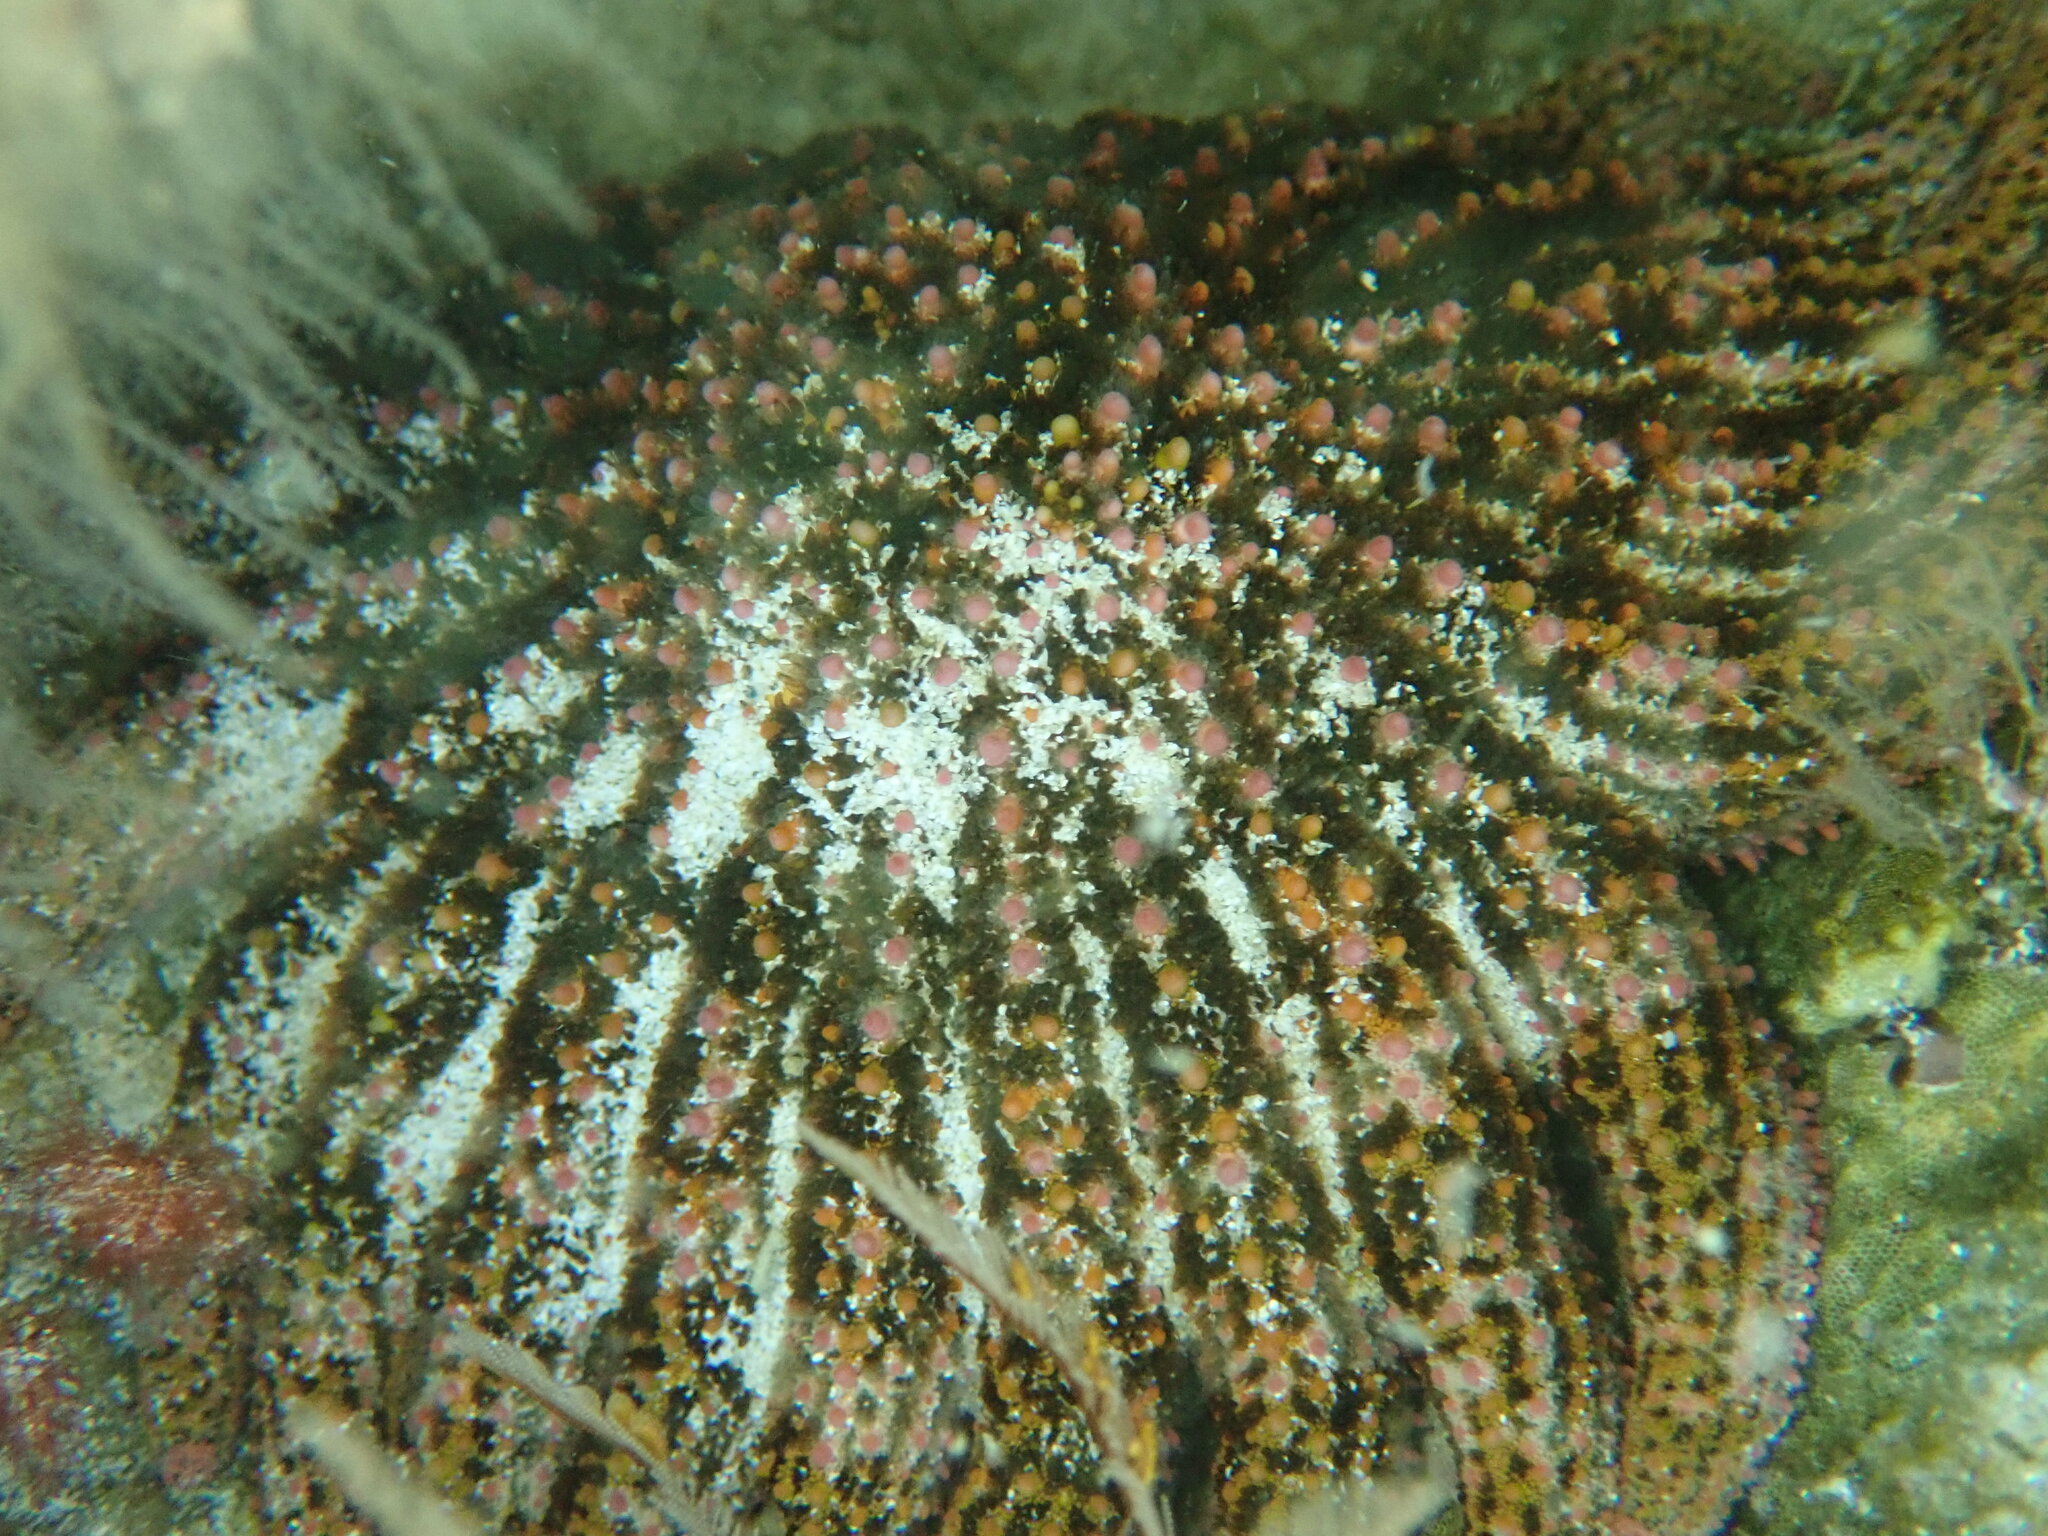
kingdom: Animalia
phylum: Echinodermata
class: Asteroidea
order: Forcipulatida
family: Heliasteridae
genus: Heliaster
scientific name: Heliaster kubiniji
